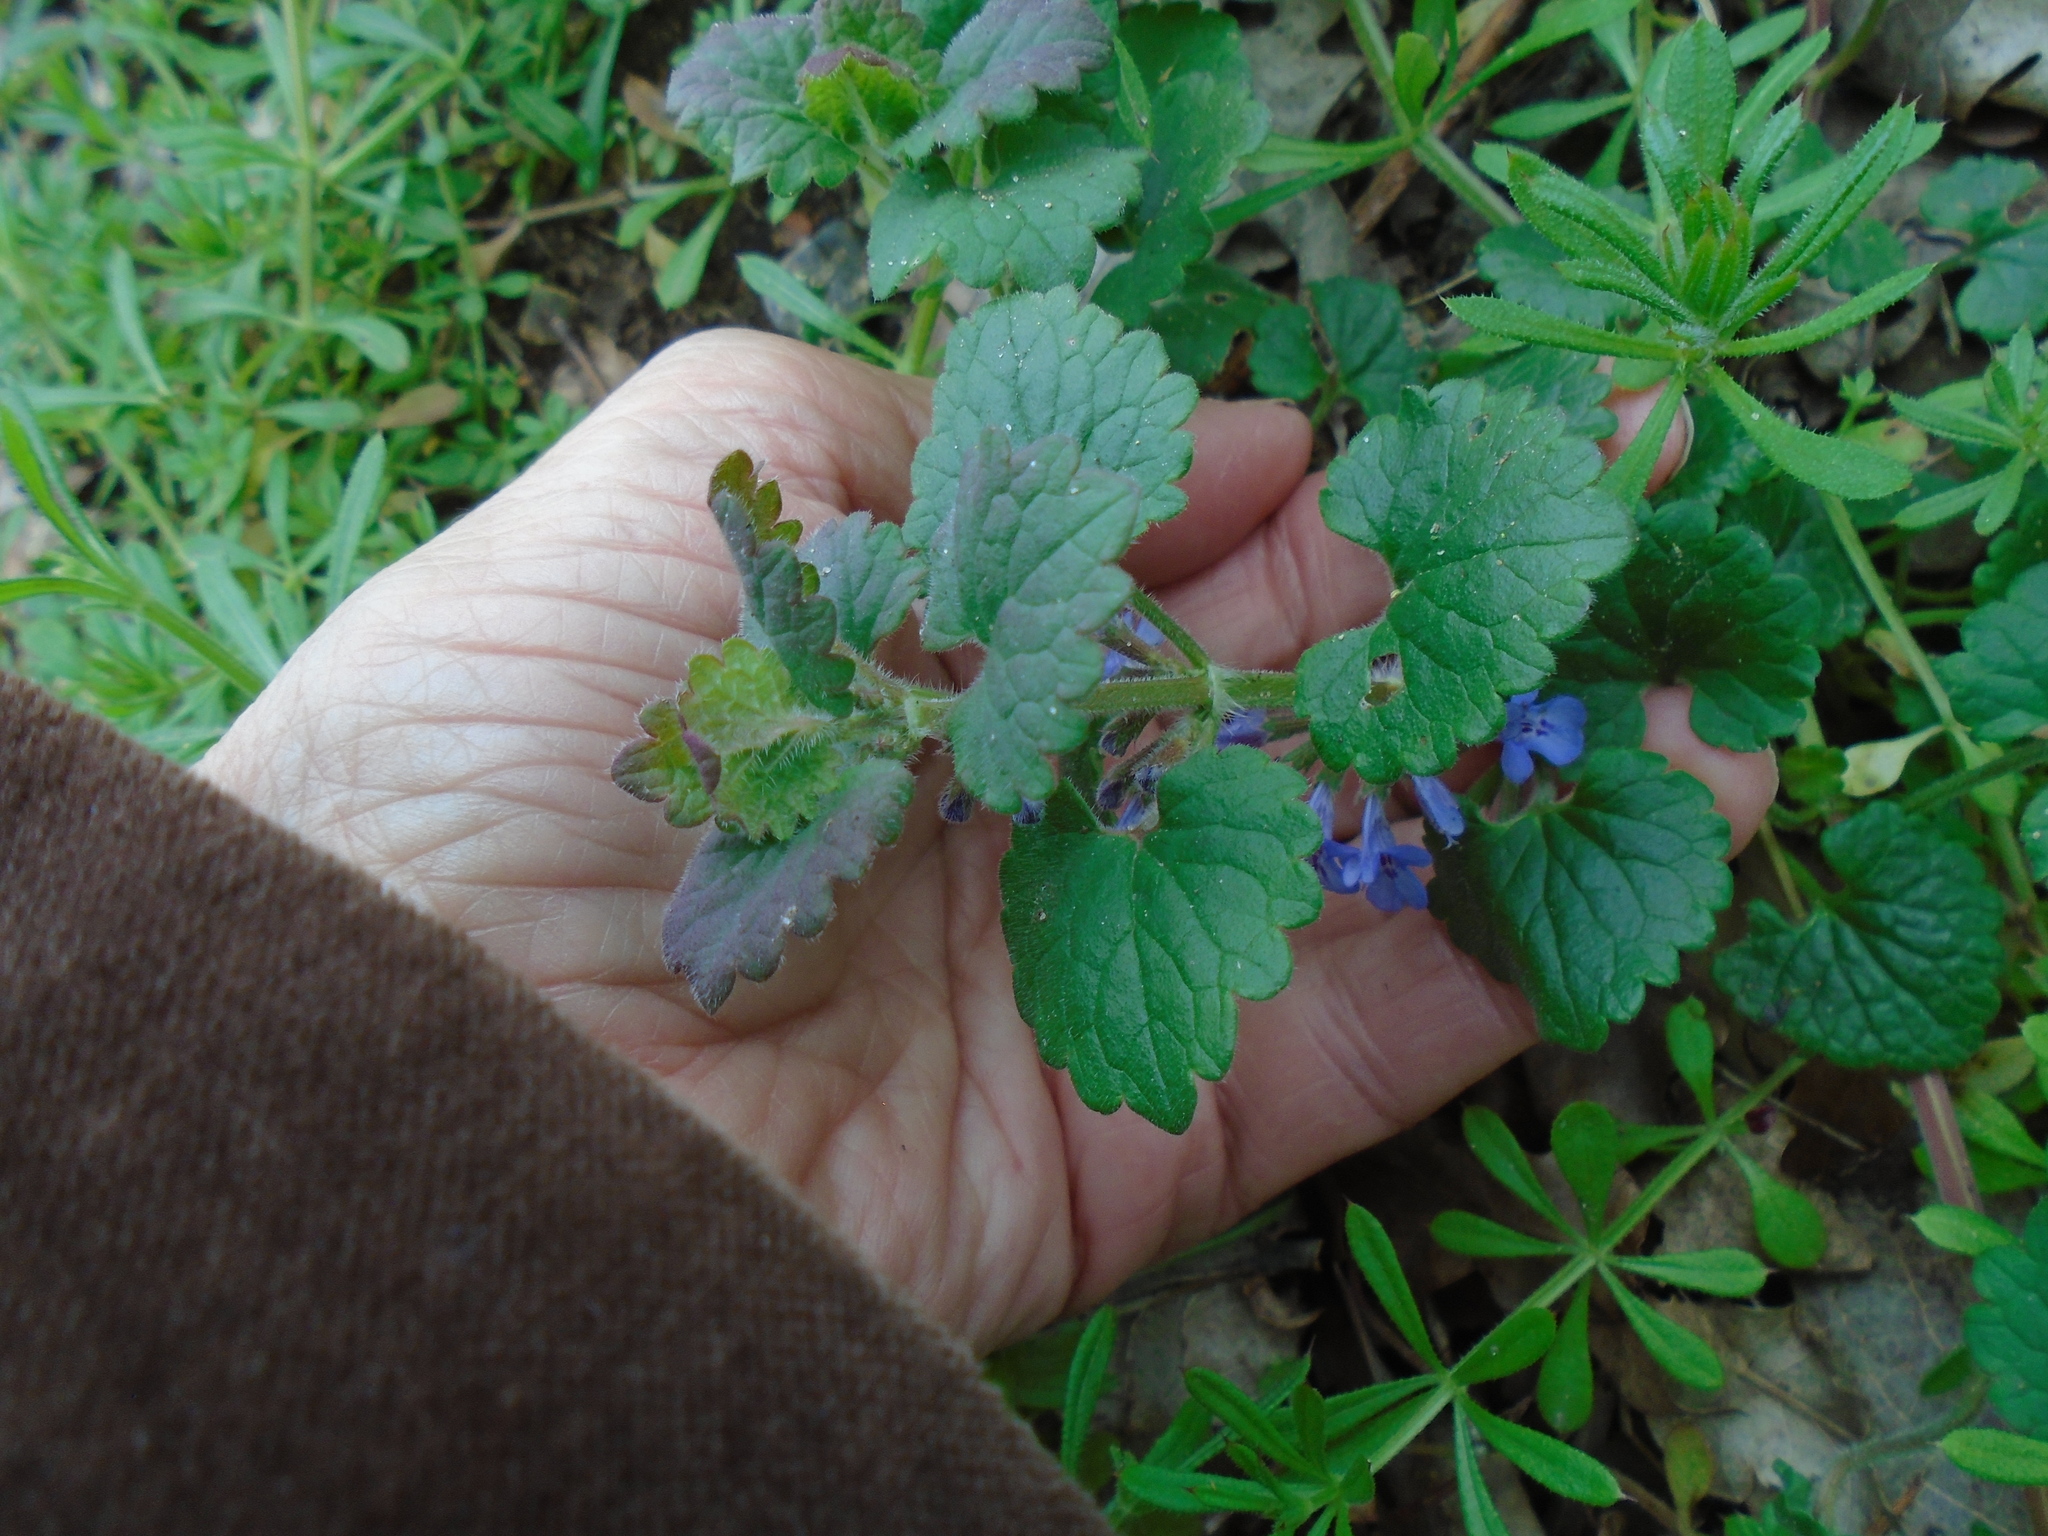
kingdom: Plantae
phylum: Tracheophyta
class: Magnoliopsida
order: Lamiales
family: Lamiaceae
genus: Glechoma
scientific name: Glechoma hederacea
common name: Ground ivy
